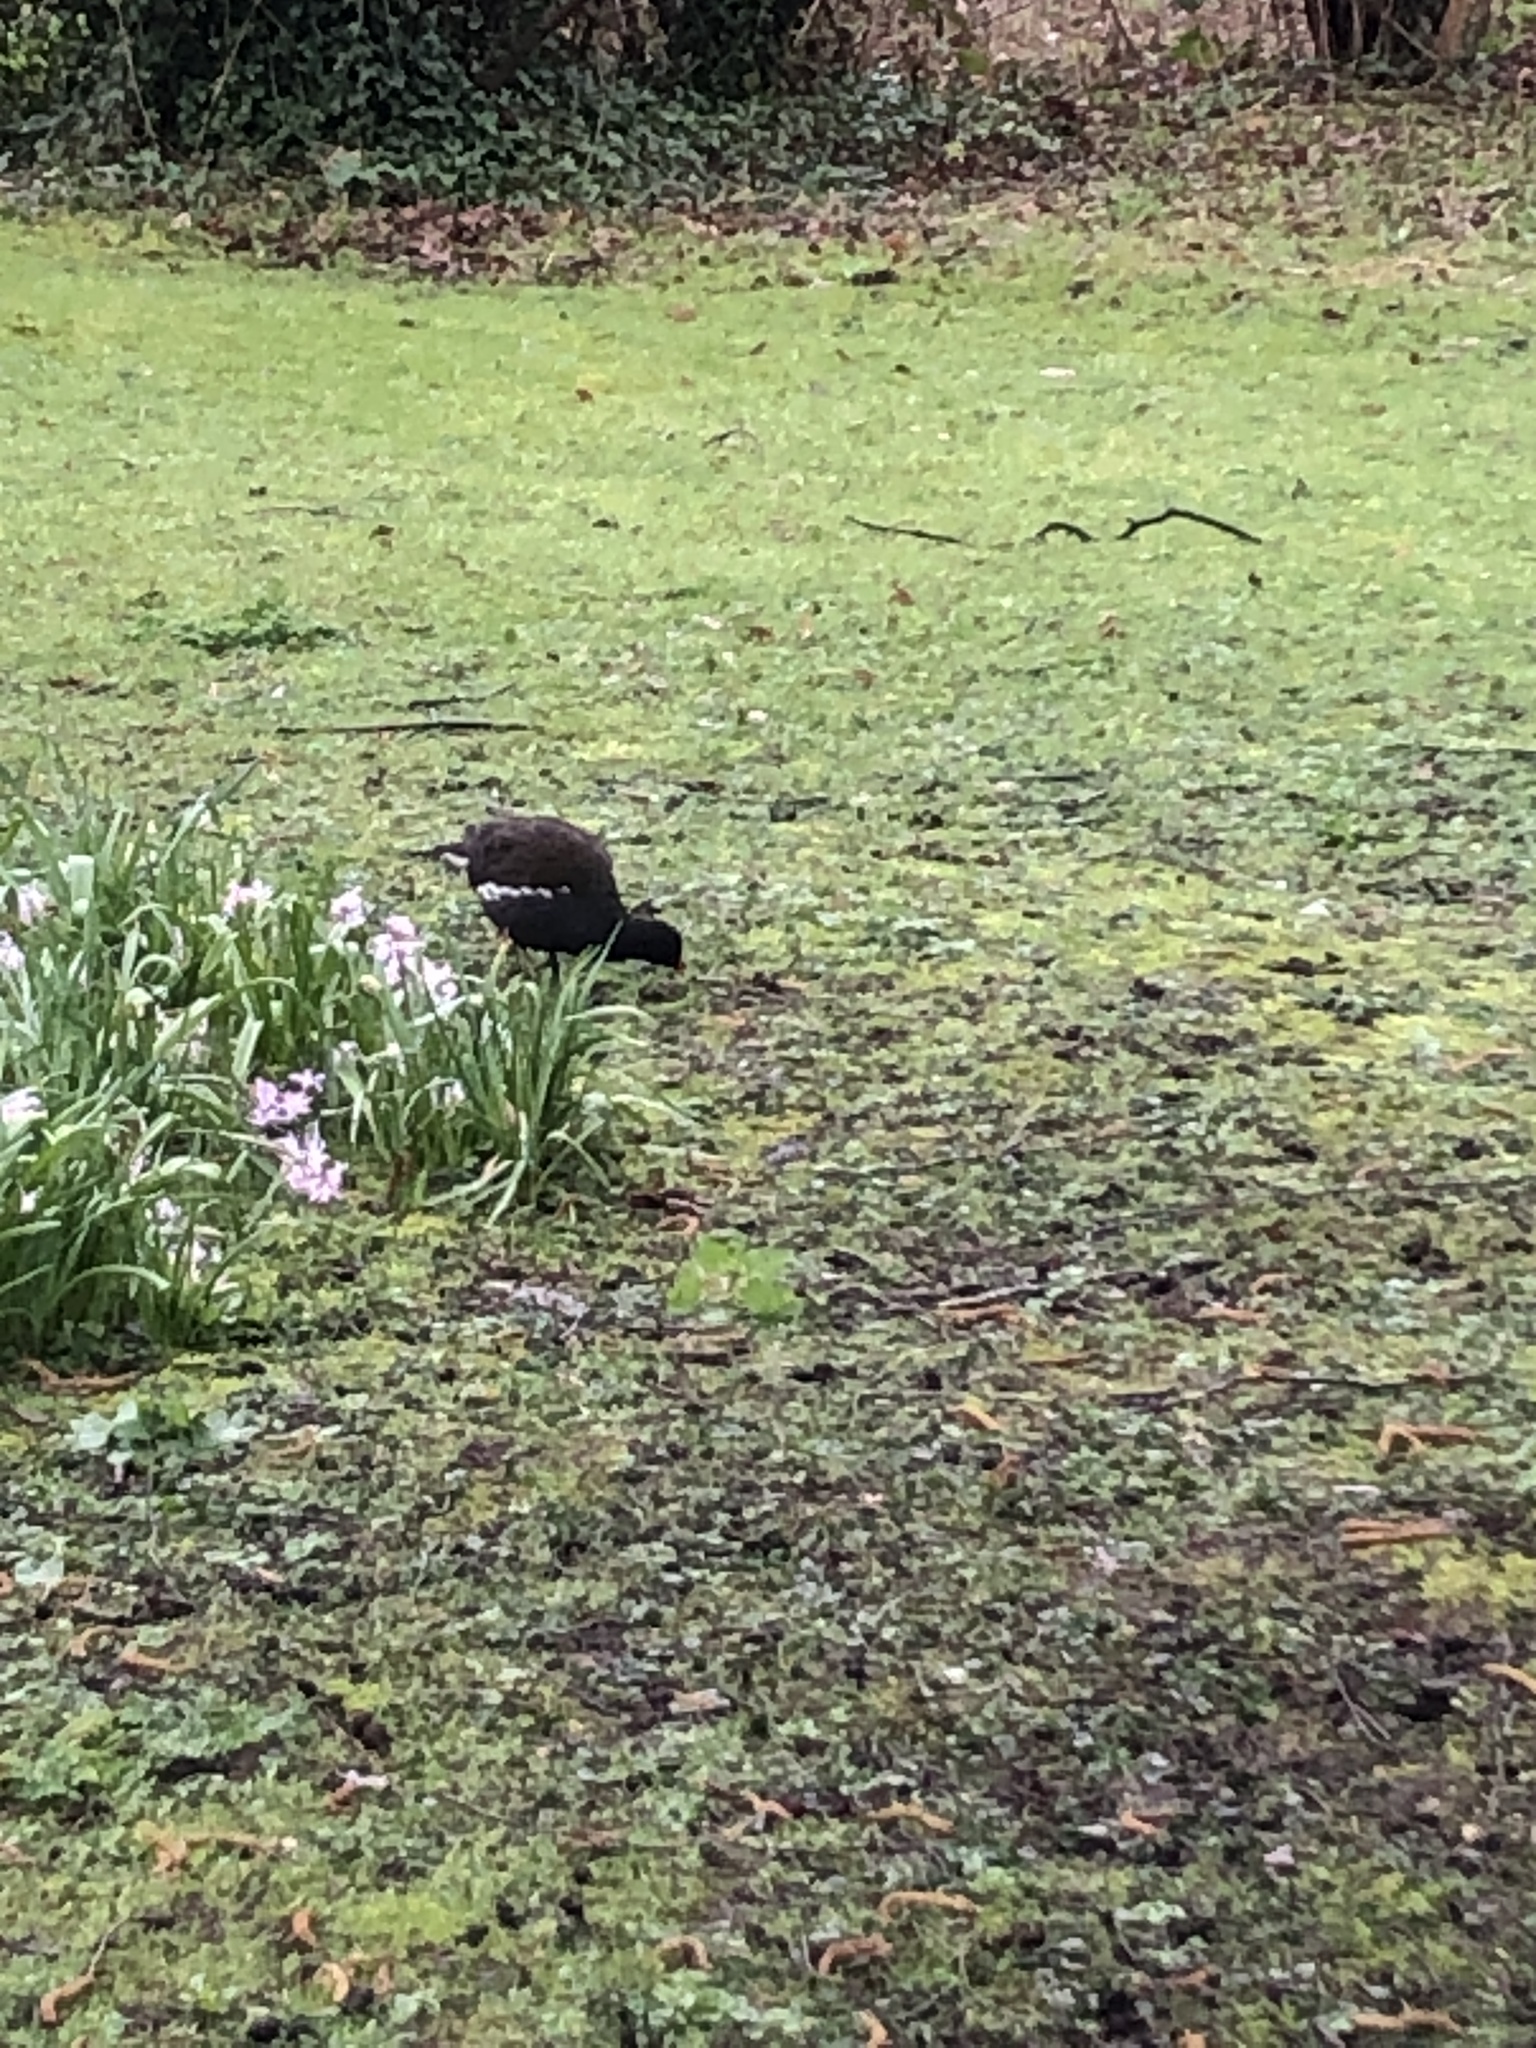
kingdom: Animalia
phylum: Chordata
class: Aves
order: Gruiformes
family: Rallidae
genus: Gallinula
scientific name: Gallinula chloropus
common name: Common moorhen
